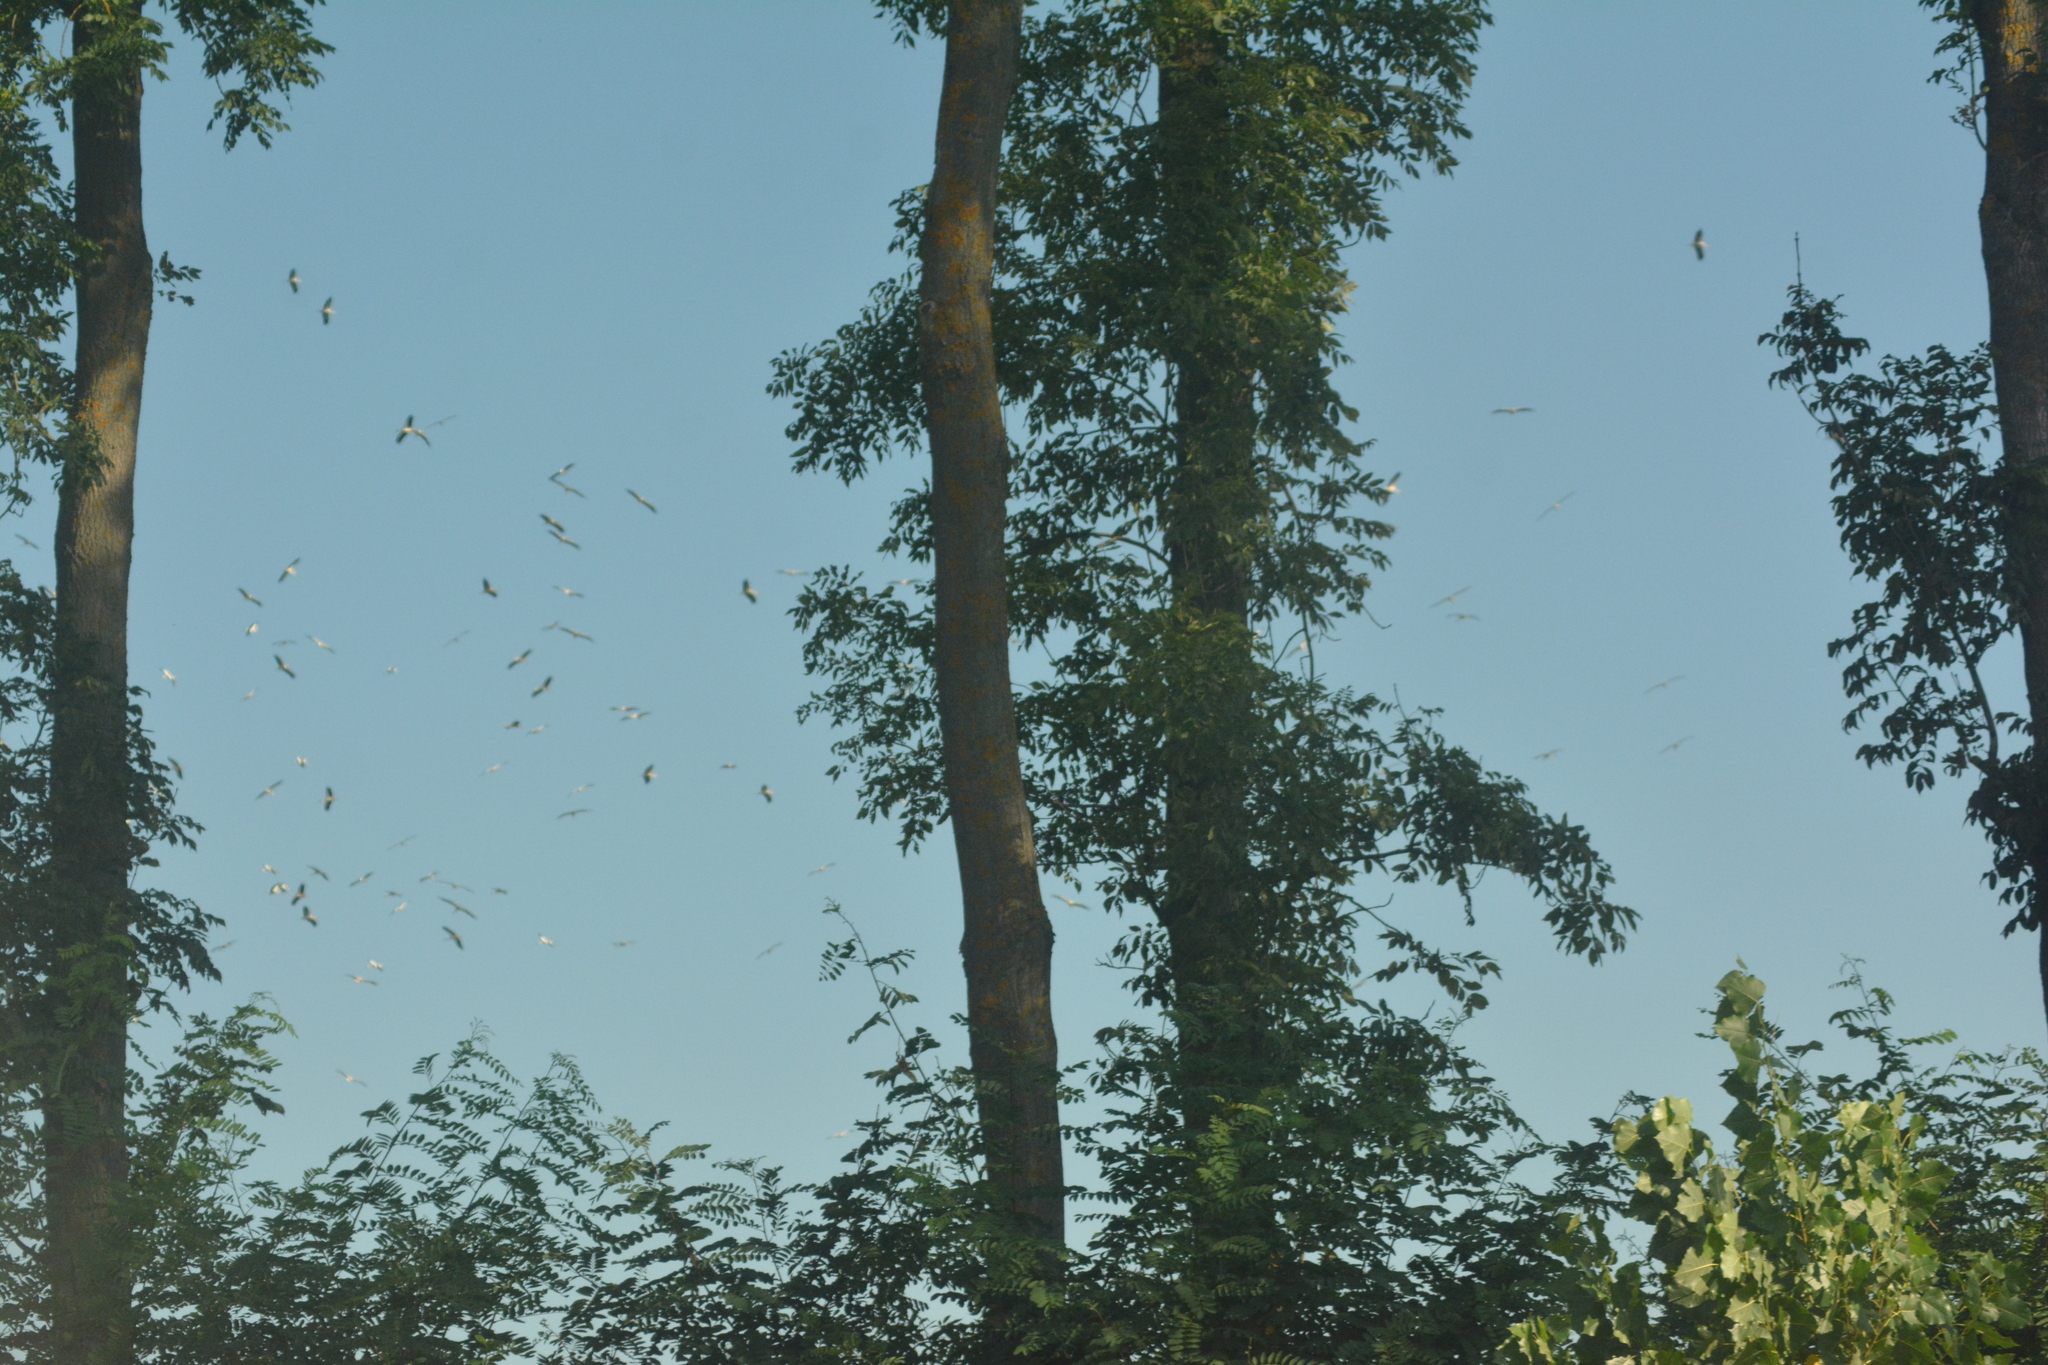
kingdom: Animalia
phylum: Chordata
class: Aves
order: Ciconiiformes
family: Ciconiidae
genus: Ciconia
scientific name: Ciconia ciconia
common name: White stork
